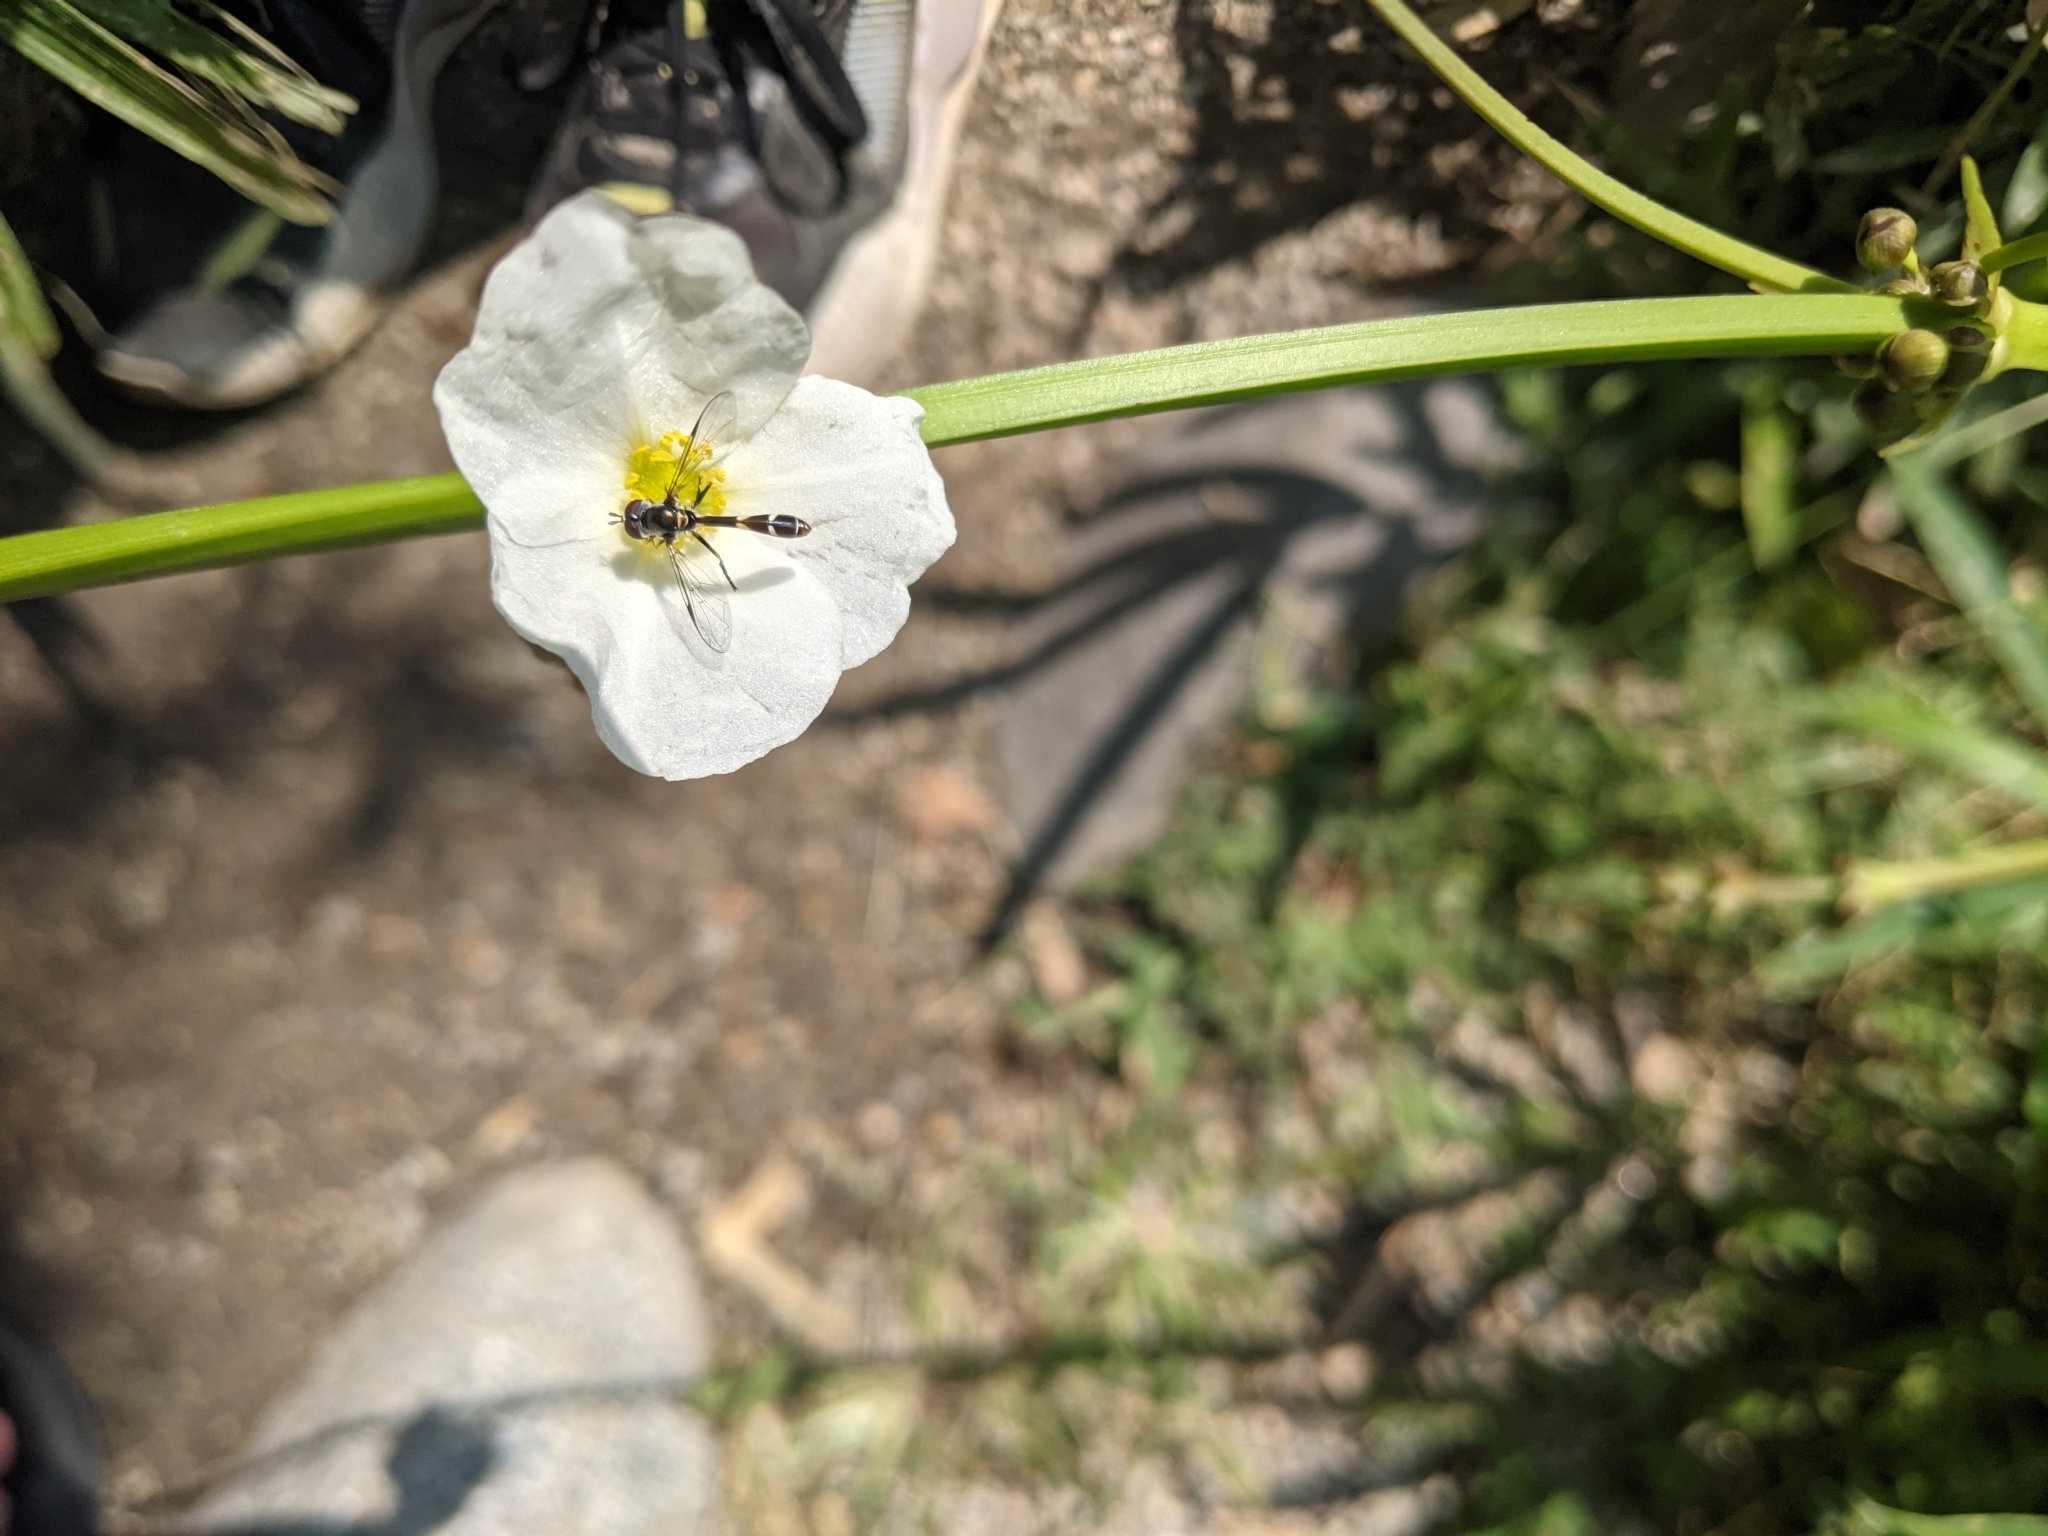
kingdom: Animalia
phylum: Arthropoda
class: Insecta
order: Diptera
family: Syrphidae
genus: Dioprosopa
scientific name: Dioprosopa clavatus
